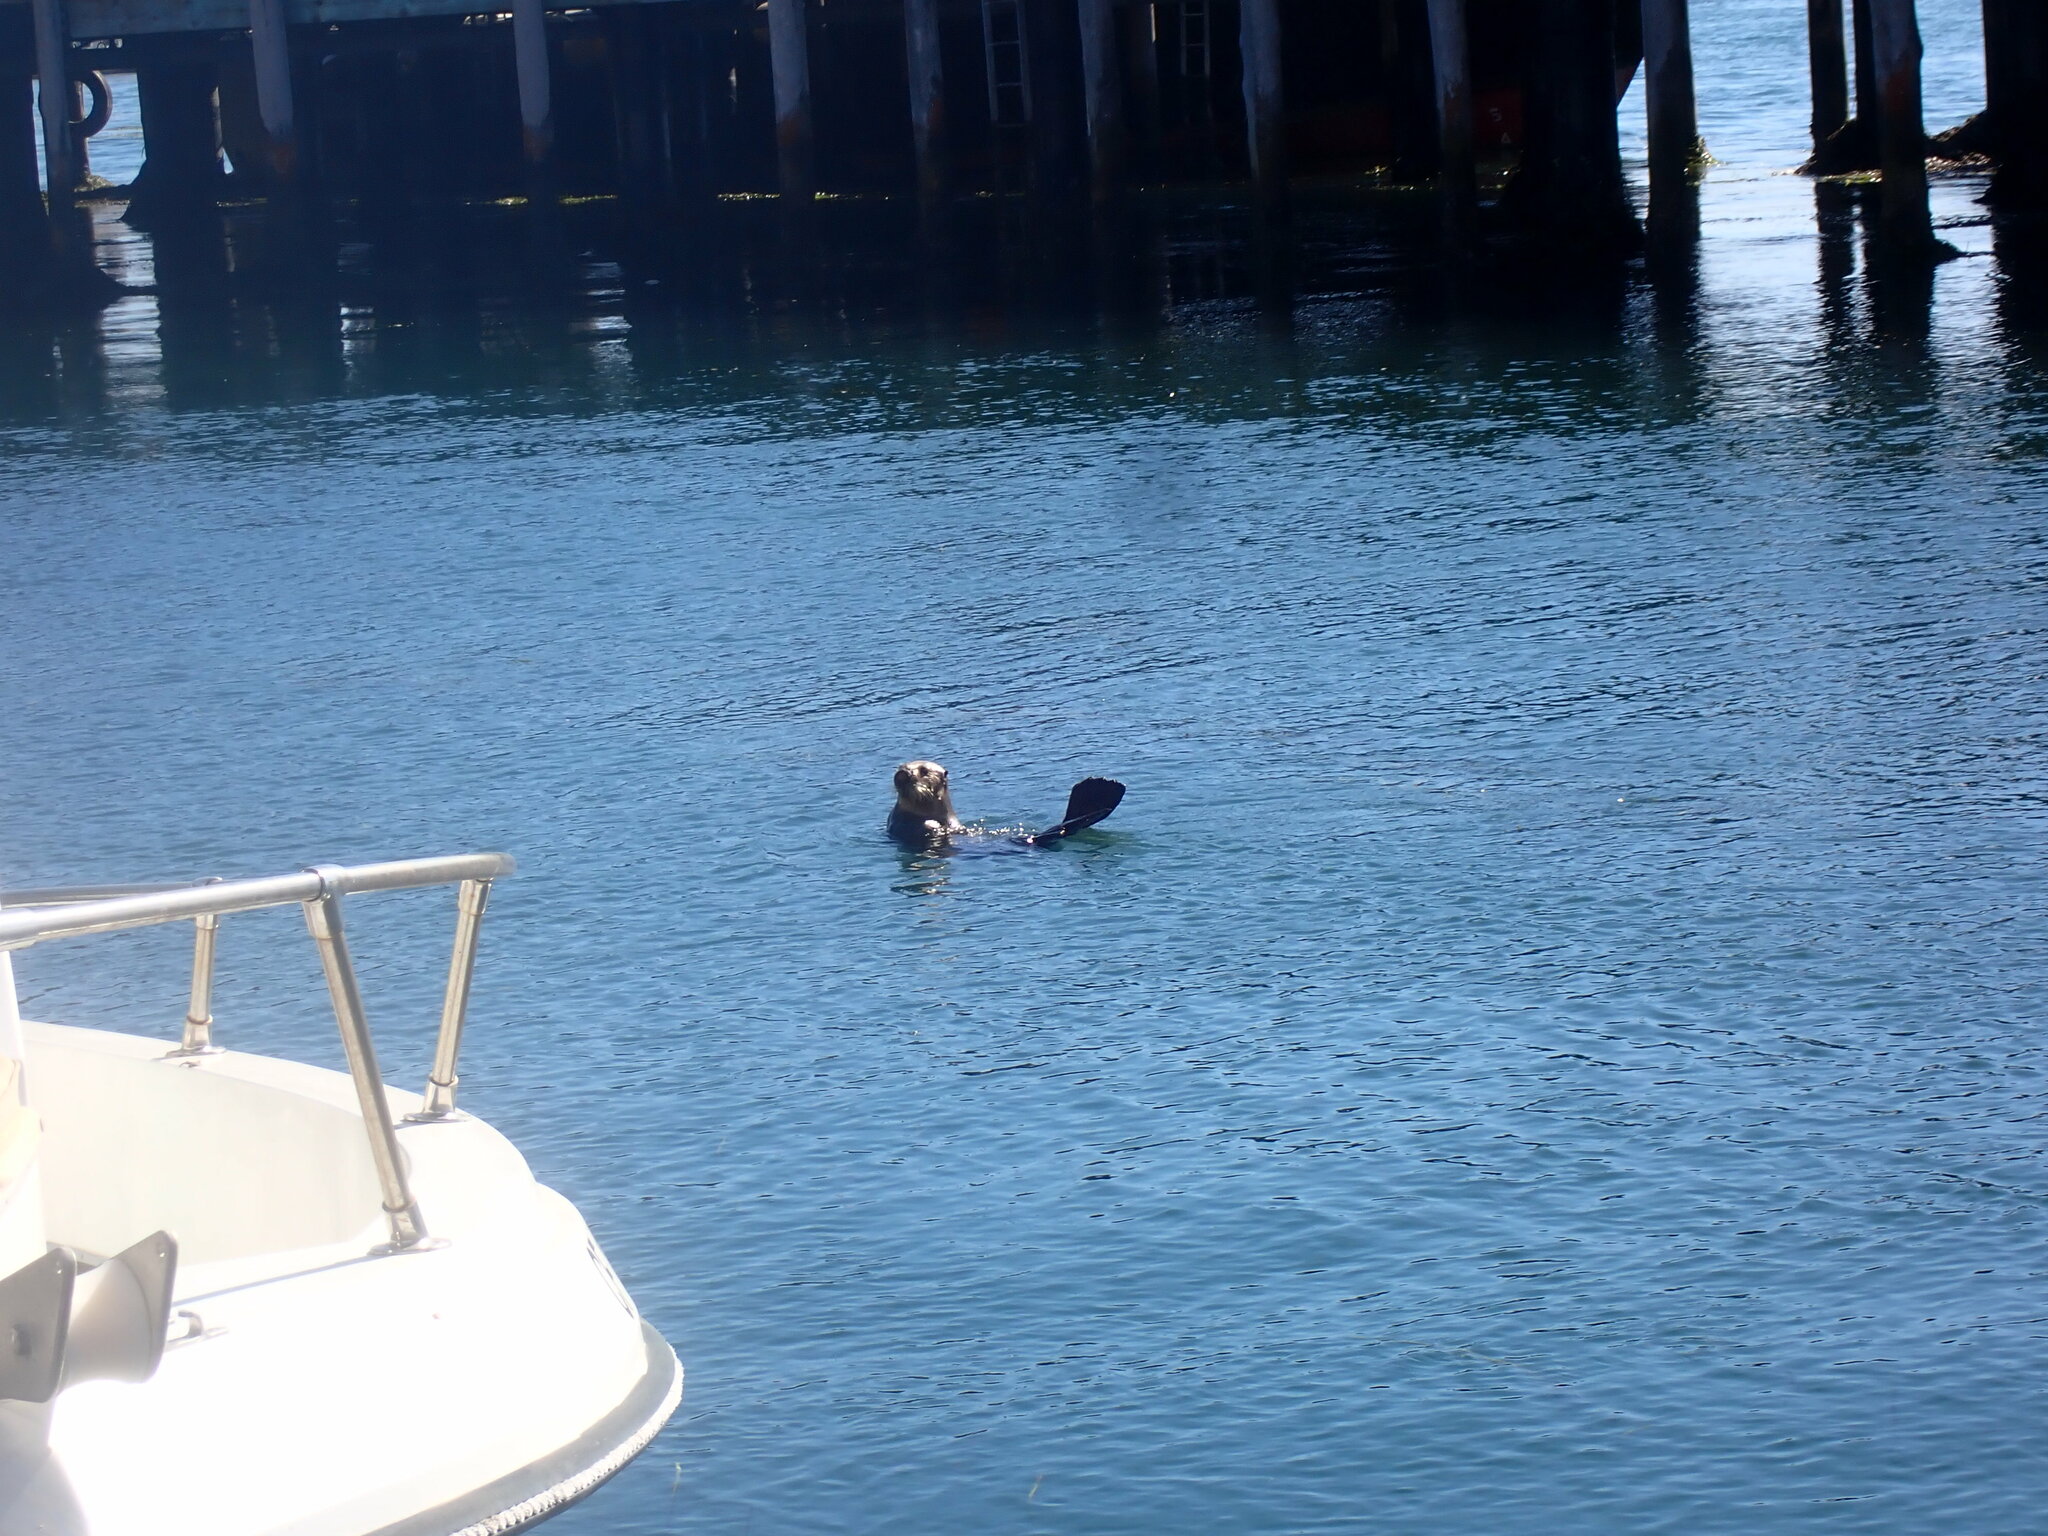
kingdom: Animalia
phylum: Chordata
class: Mammalia
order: Carnivora
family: Mustelidae
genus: Enhydra
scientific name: Enhydra lutris
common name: Sea otter
